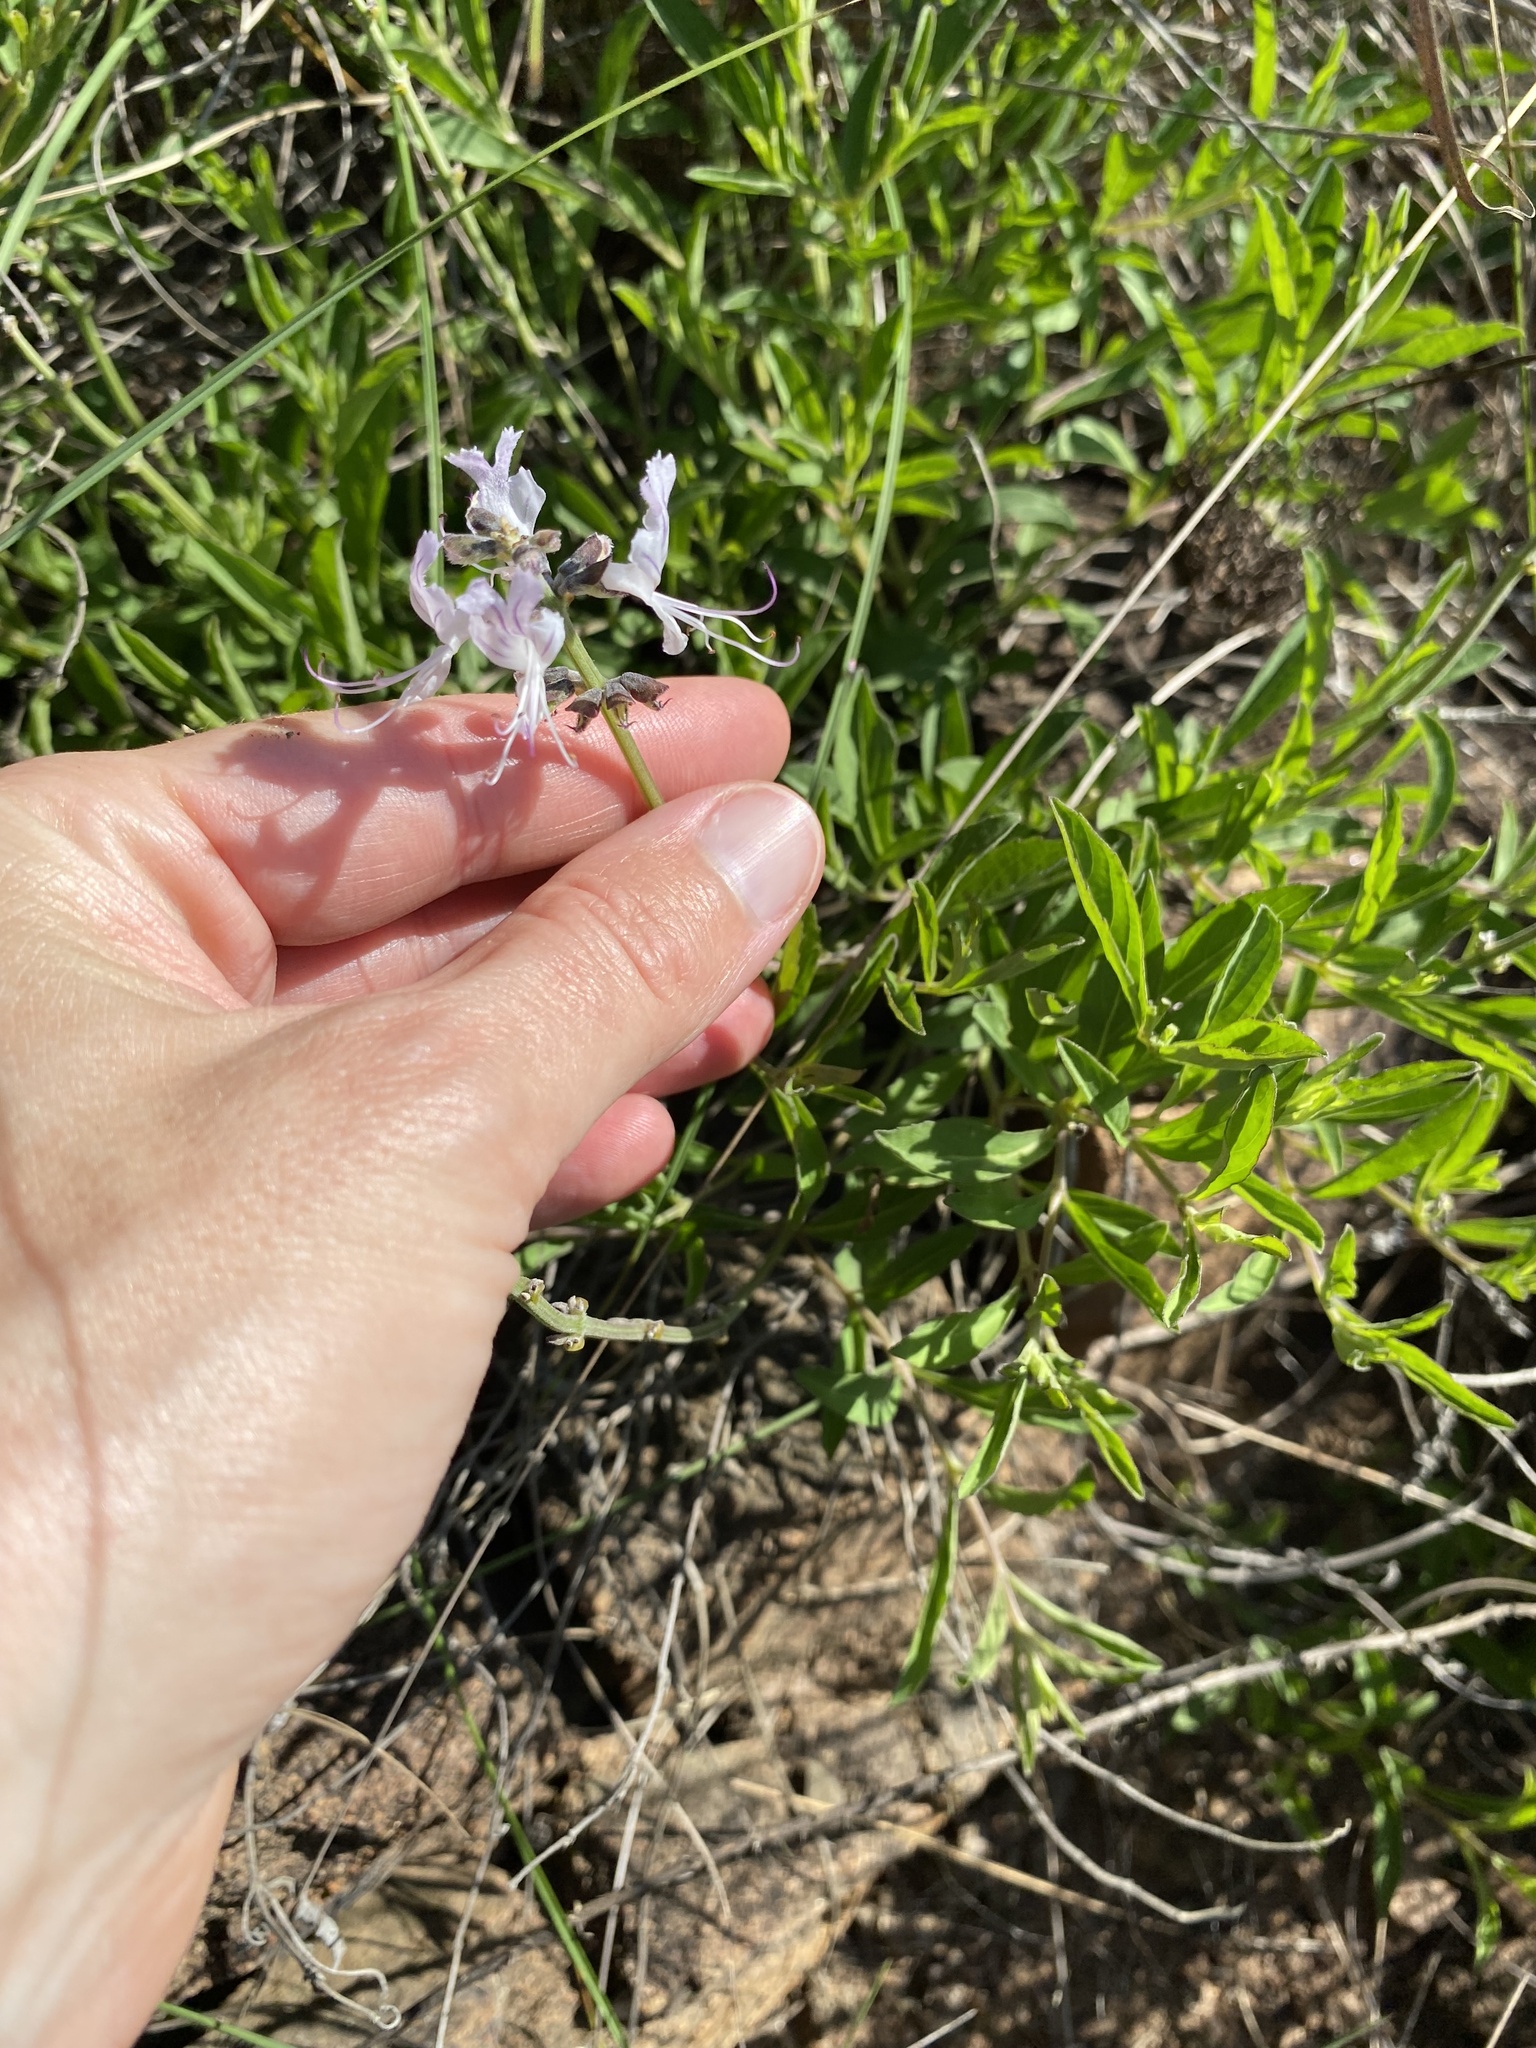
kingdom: Plantae
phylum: Tracheophyta
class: Magnoliopsida
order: Lamiales
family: Lamiaceae
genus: Ocimum
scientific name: Ocimum obovatum
